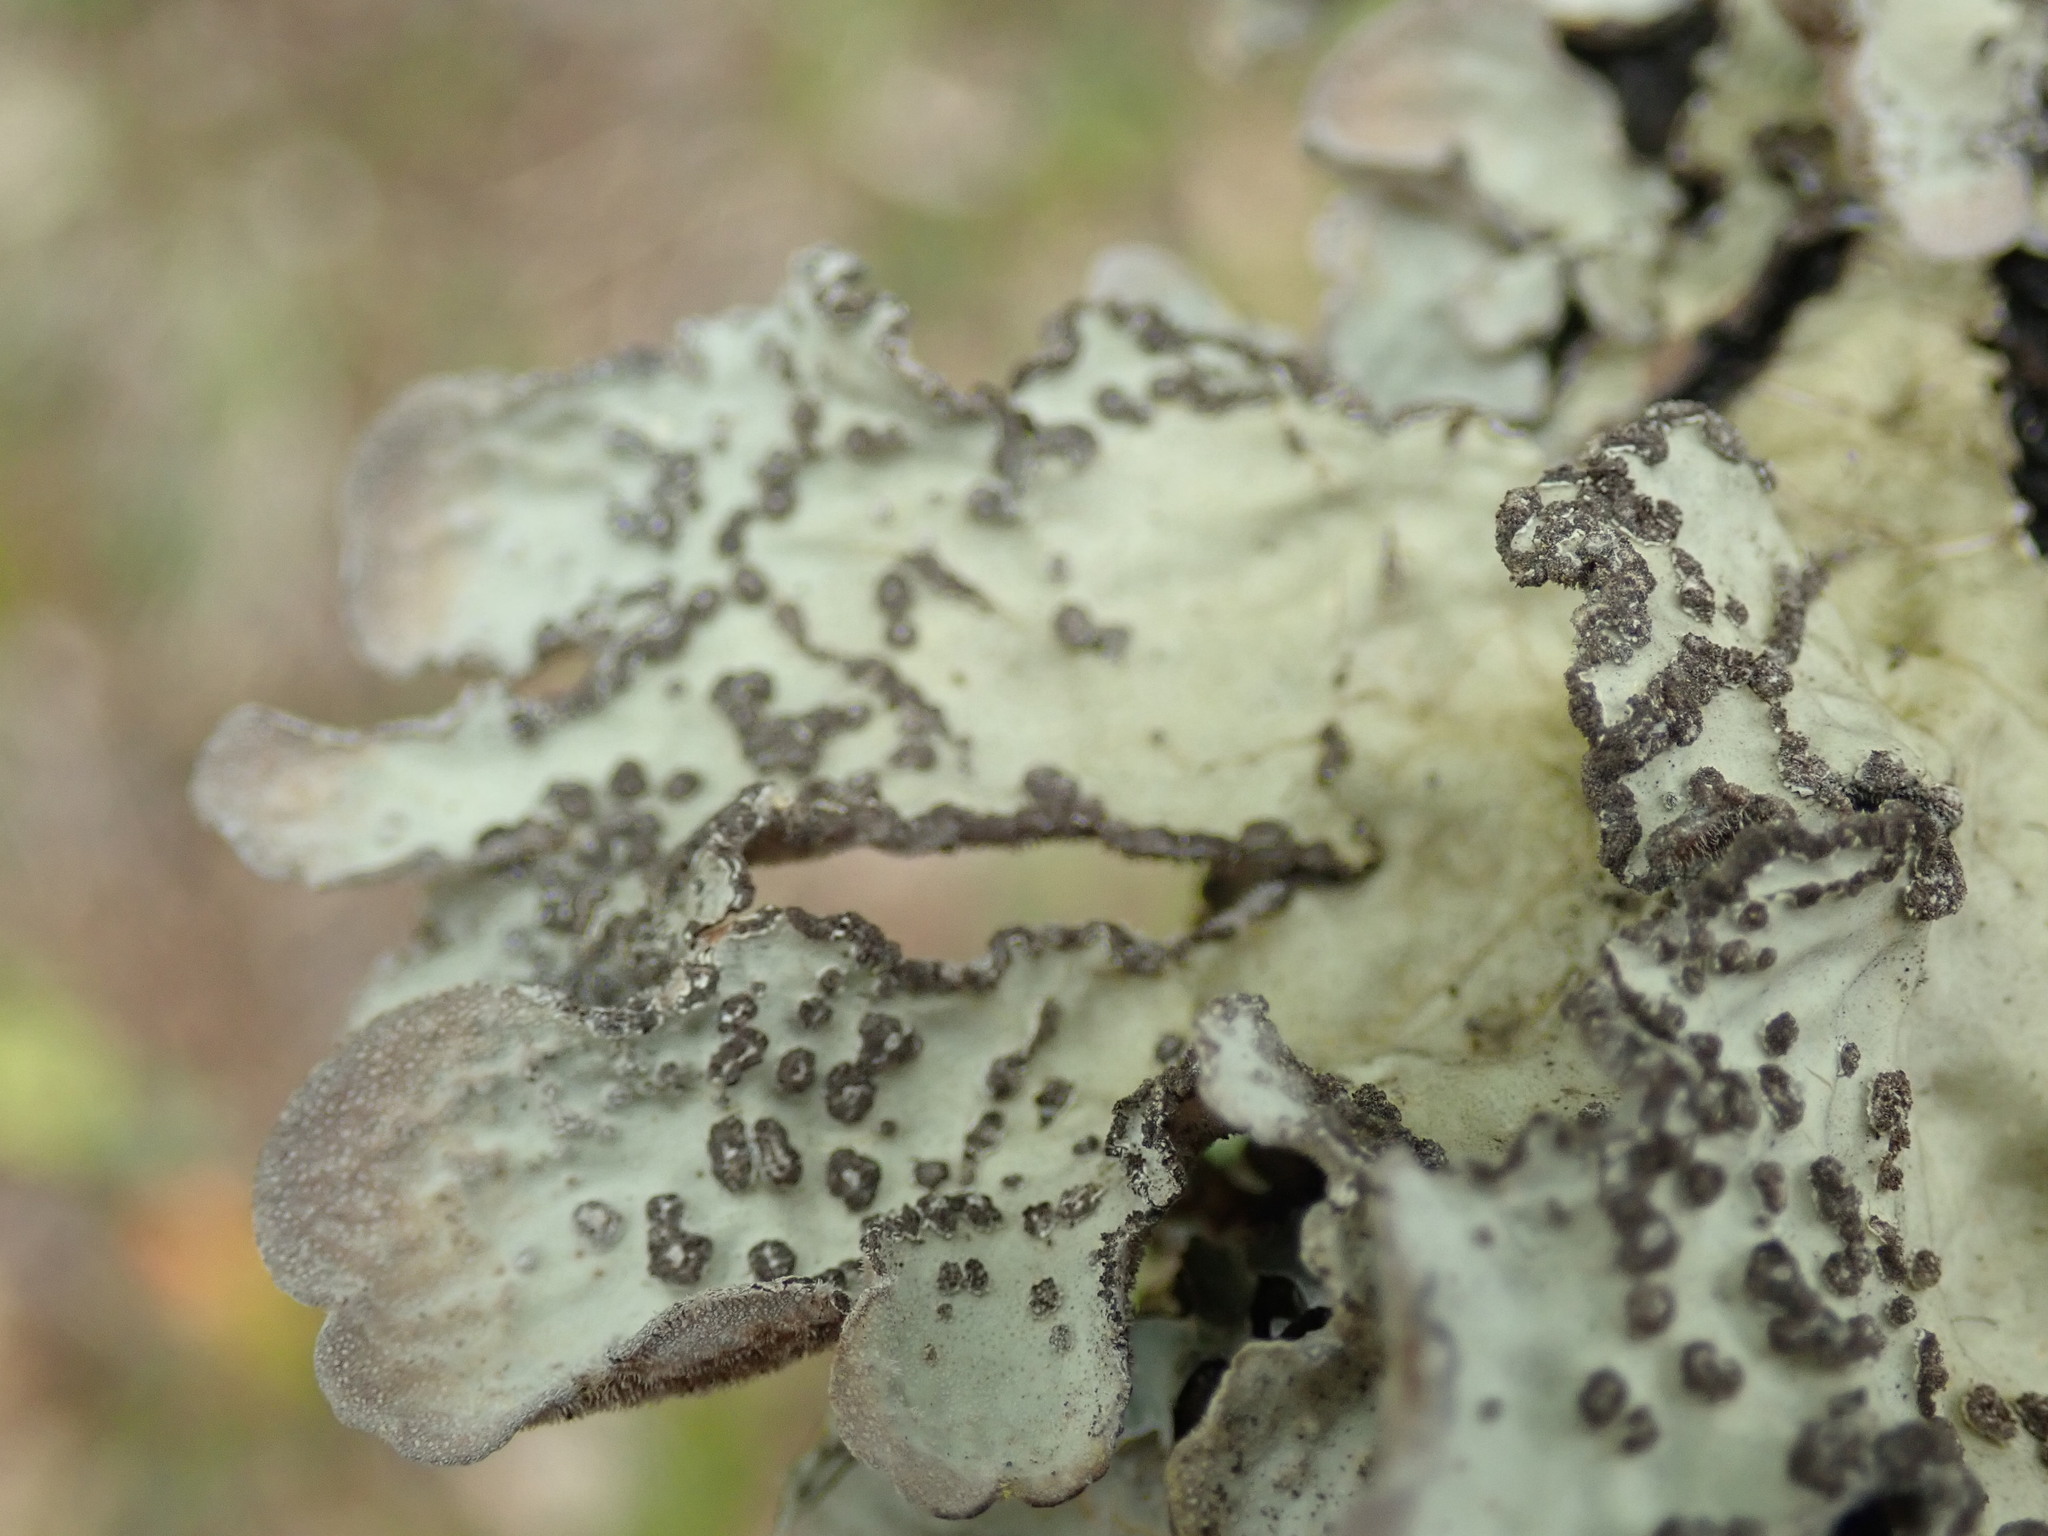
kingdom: Fungi
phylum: Ascomycota
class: Lecanoromycetes
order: Peltigerales
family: Lobariaceae
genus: Lobarina
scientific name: Lobarina scrobiculata
